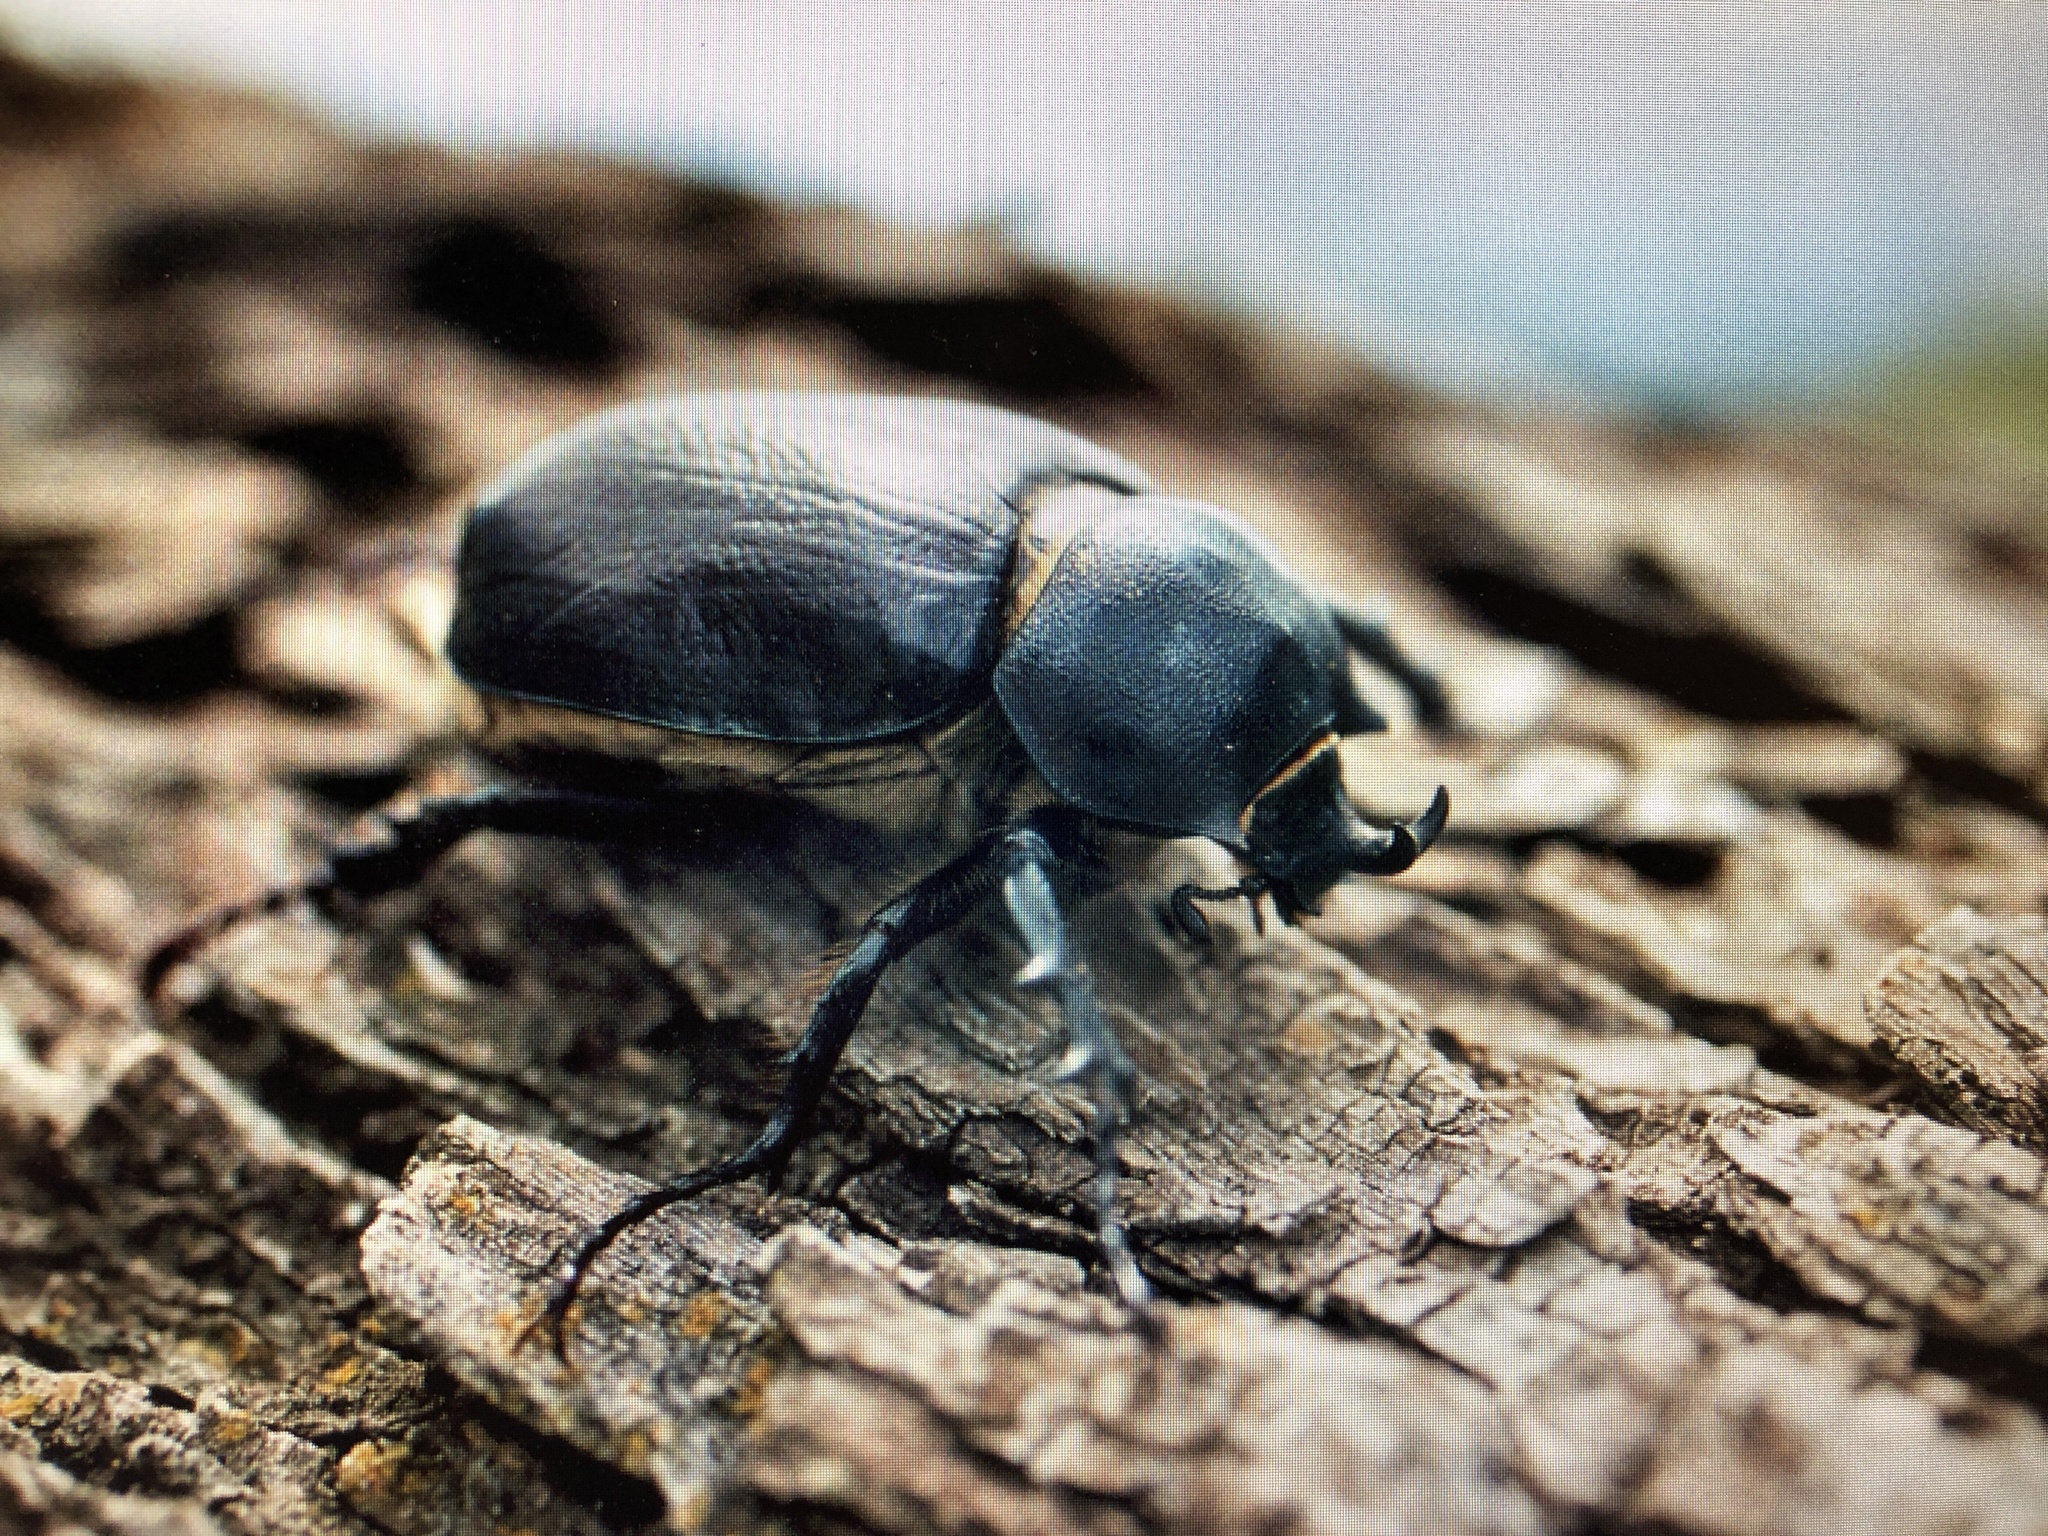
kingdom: Animalia
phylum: Arthropoda
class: Insecta
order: Coleoptera
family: Scarabaeidae
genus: Megasoma
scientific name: Megasoma punctulatum
